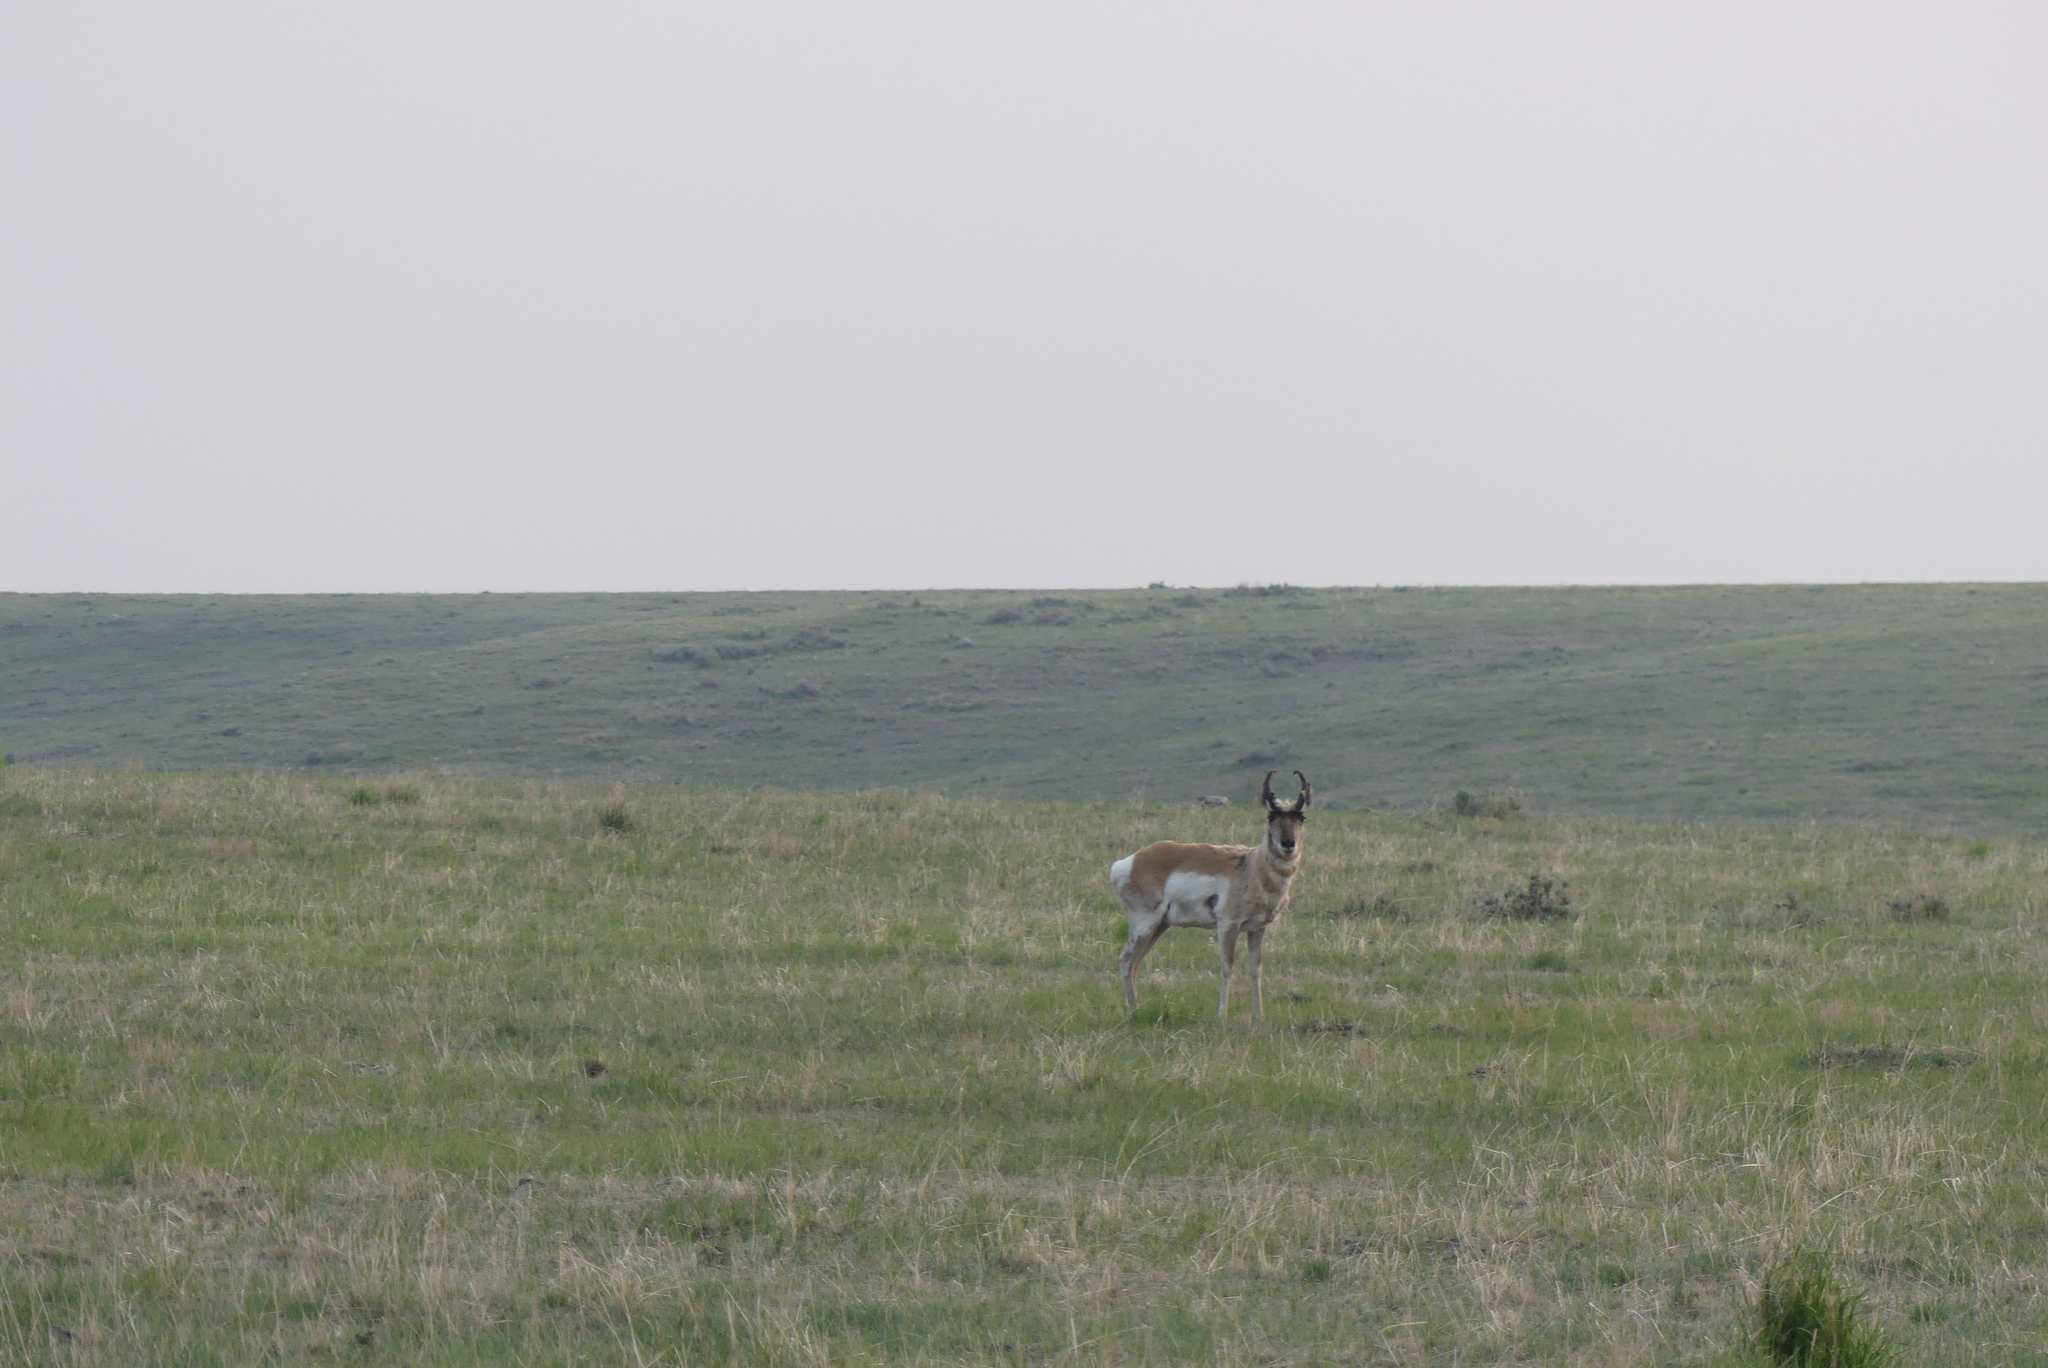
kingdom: Animalia
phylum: Chordata
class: Mammalia
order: Artiodactyla
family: Antilocapridae
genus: Antilocapra
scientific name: Antilocapra americana
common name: Pronghorn
